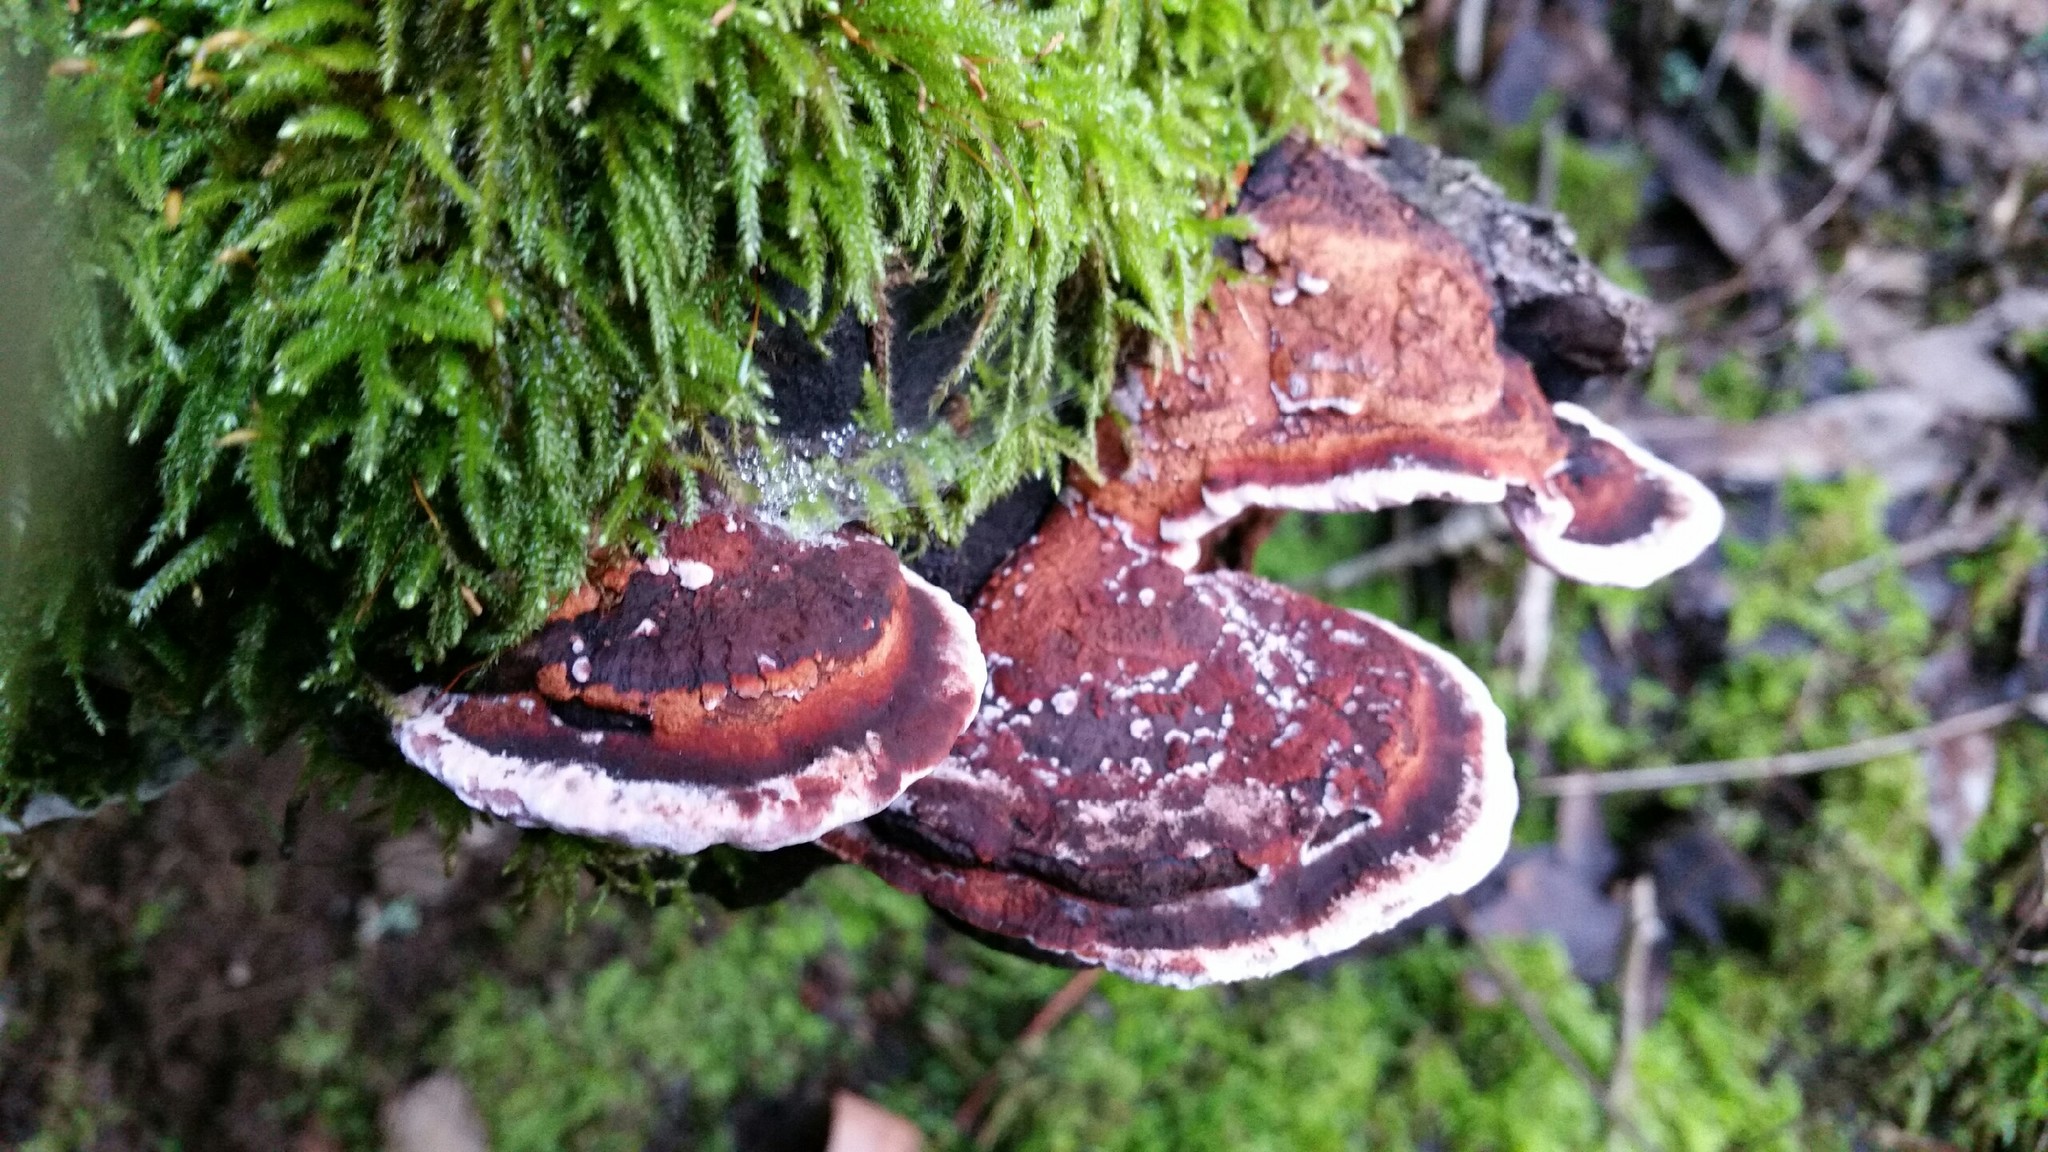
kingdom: Fungi
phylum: Basidiomycota
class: Agaricomycetes
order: Polyporales
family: Fomitopsidaceae
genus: Rhodofomes
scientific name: Rhodofomes cajanderi
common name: Rosy conk
